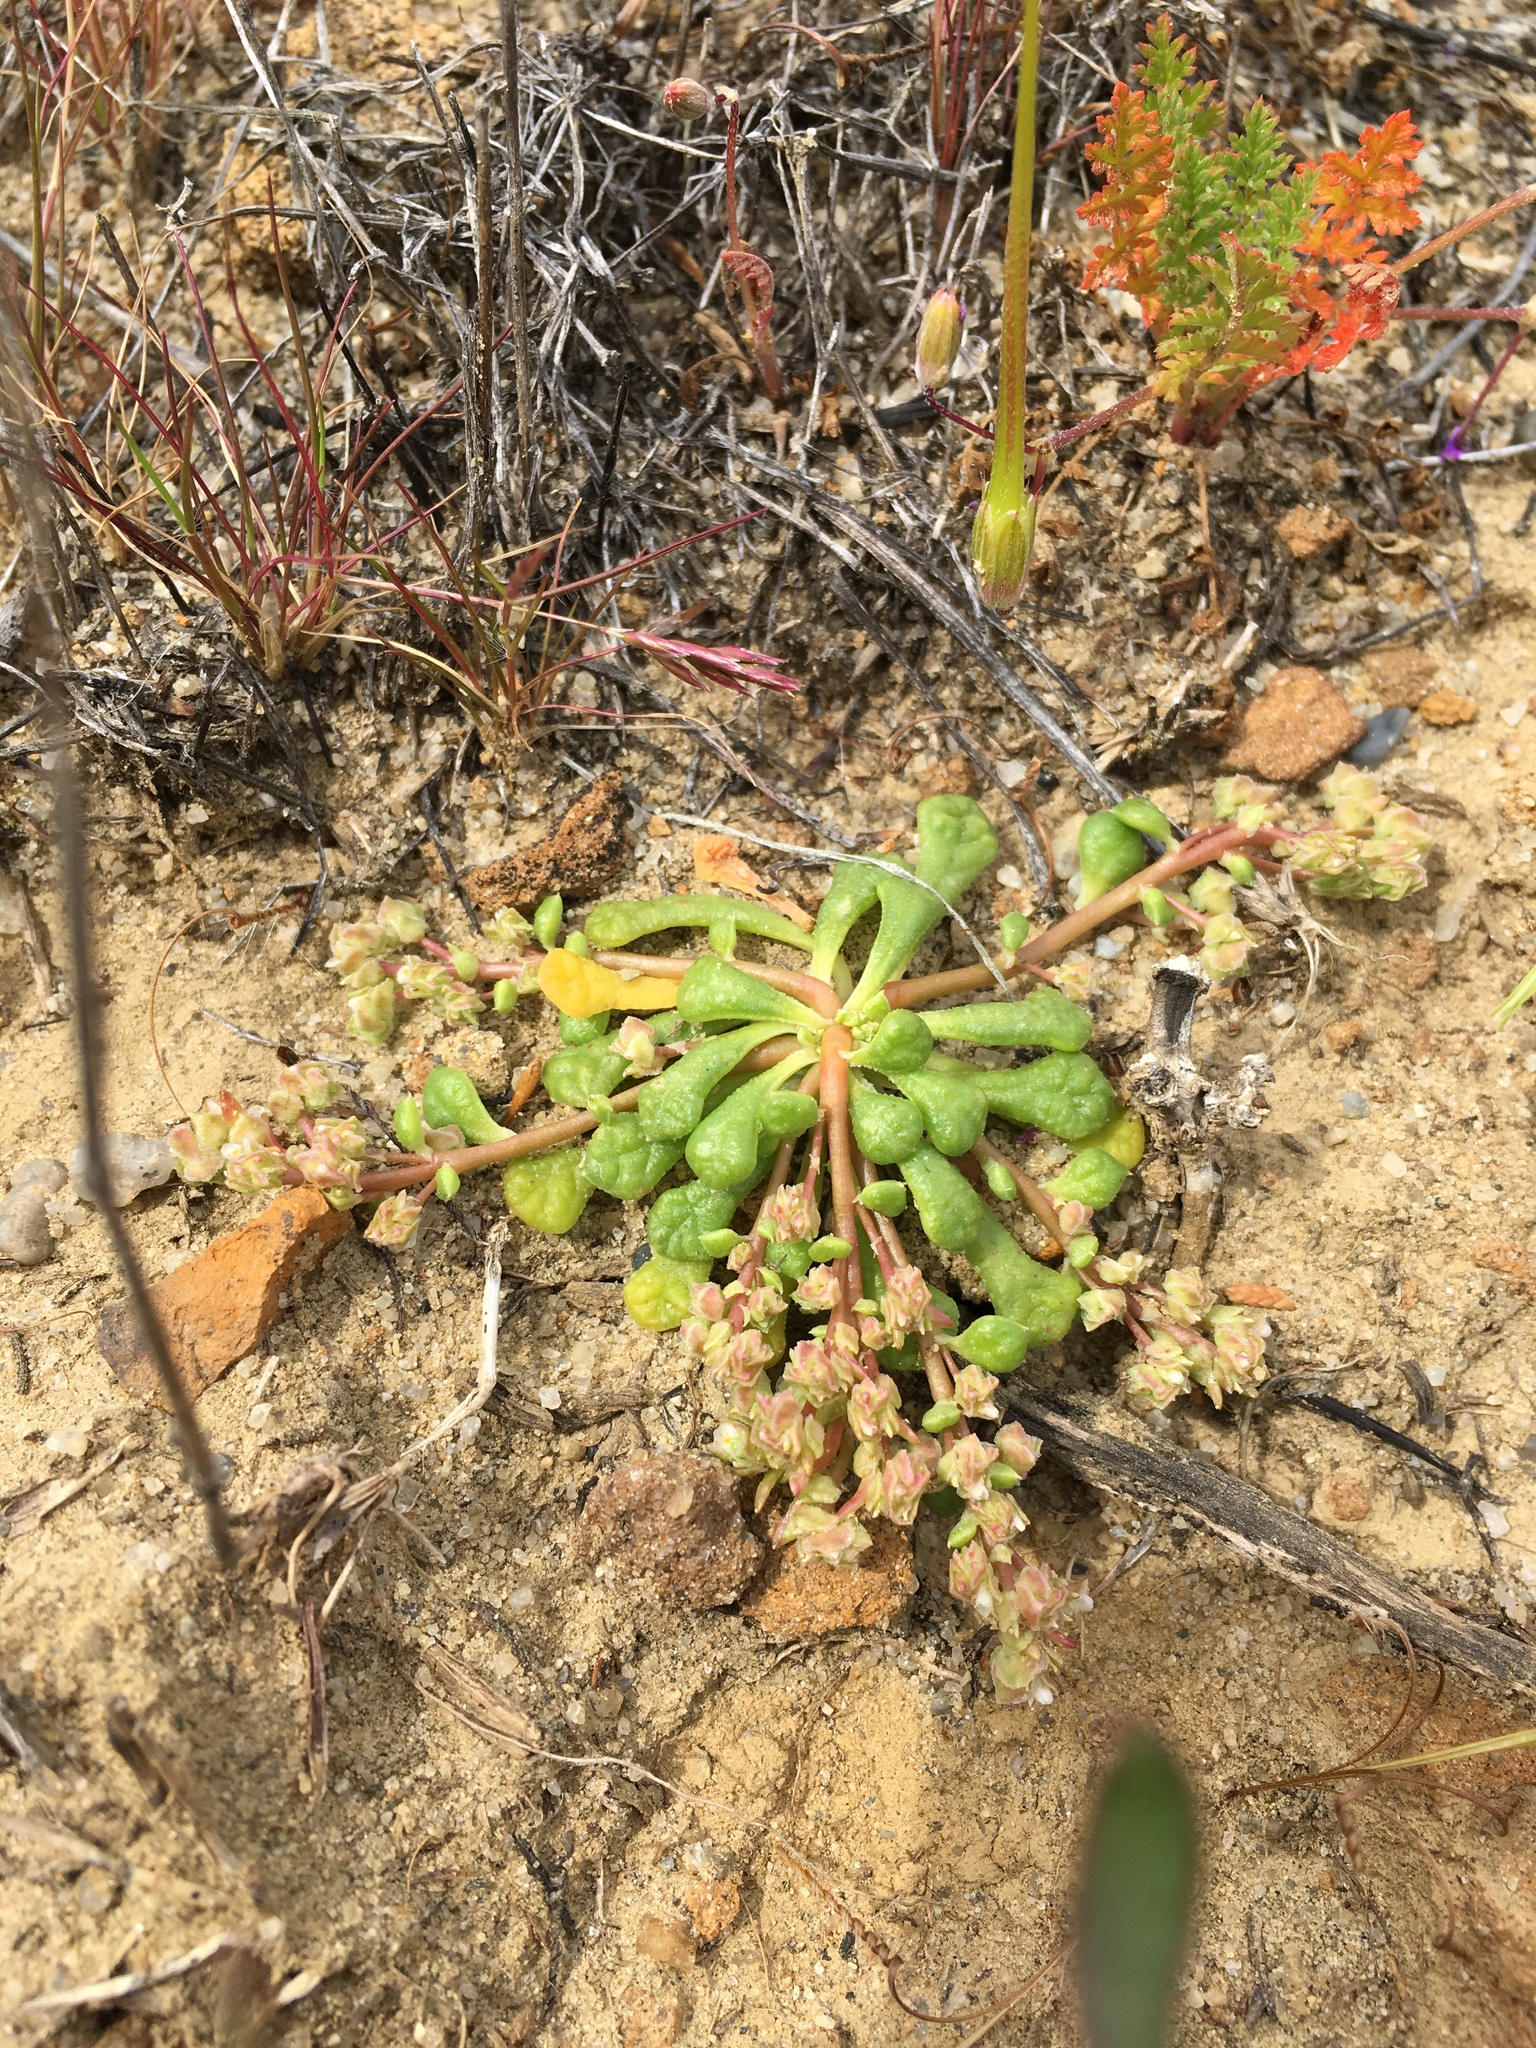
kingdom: Plantae
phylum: Tracheophyta
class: Magnoliopsida
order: Caryophyllales
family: Montiaceae
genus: Calyptridium
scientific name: Calyptridium monandrum
